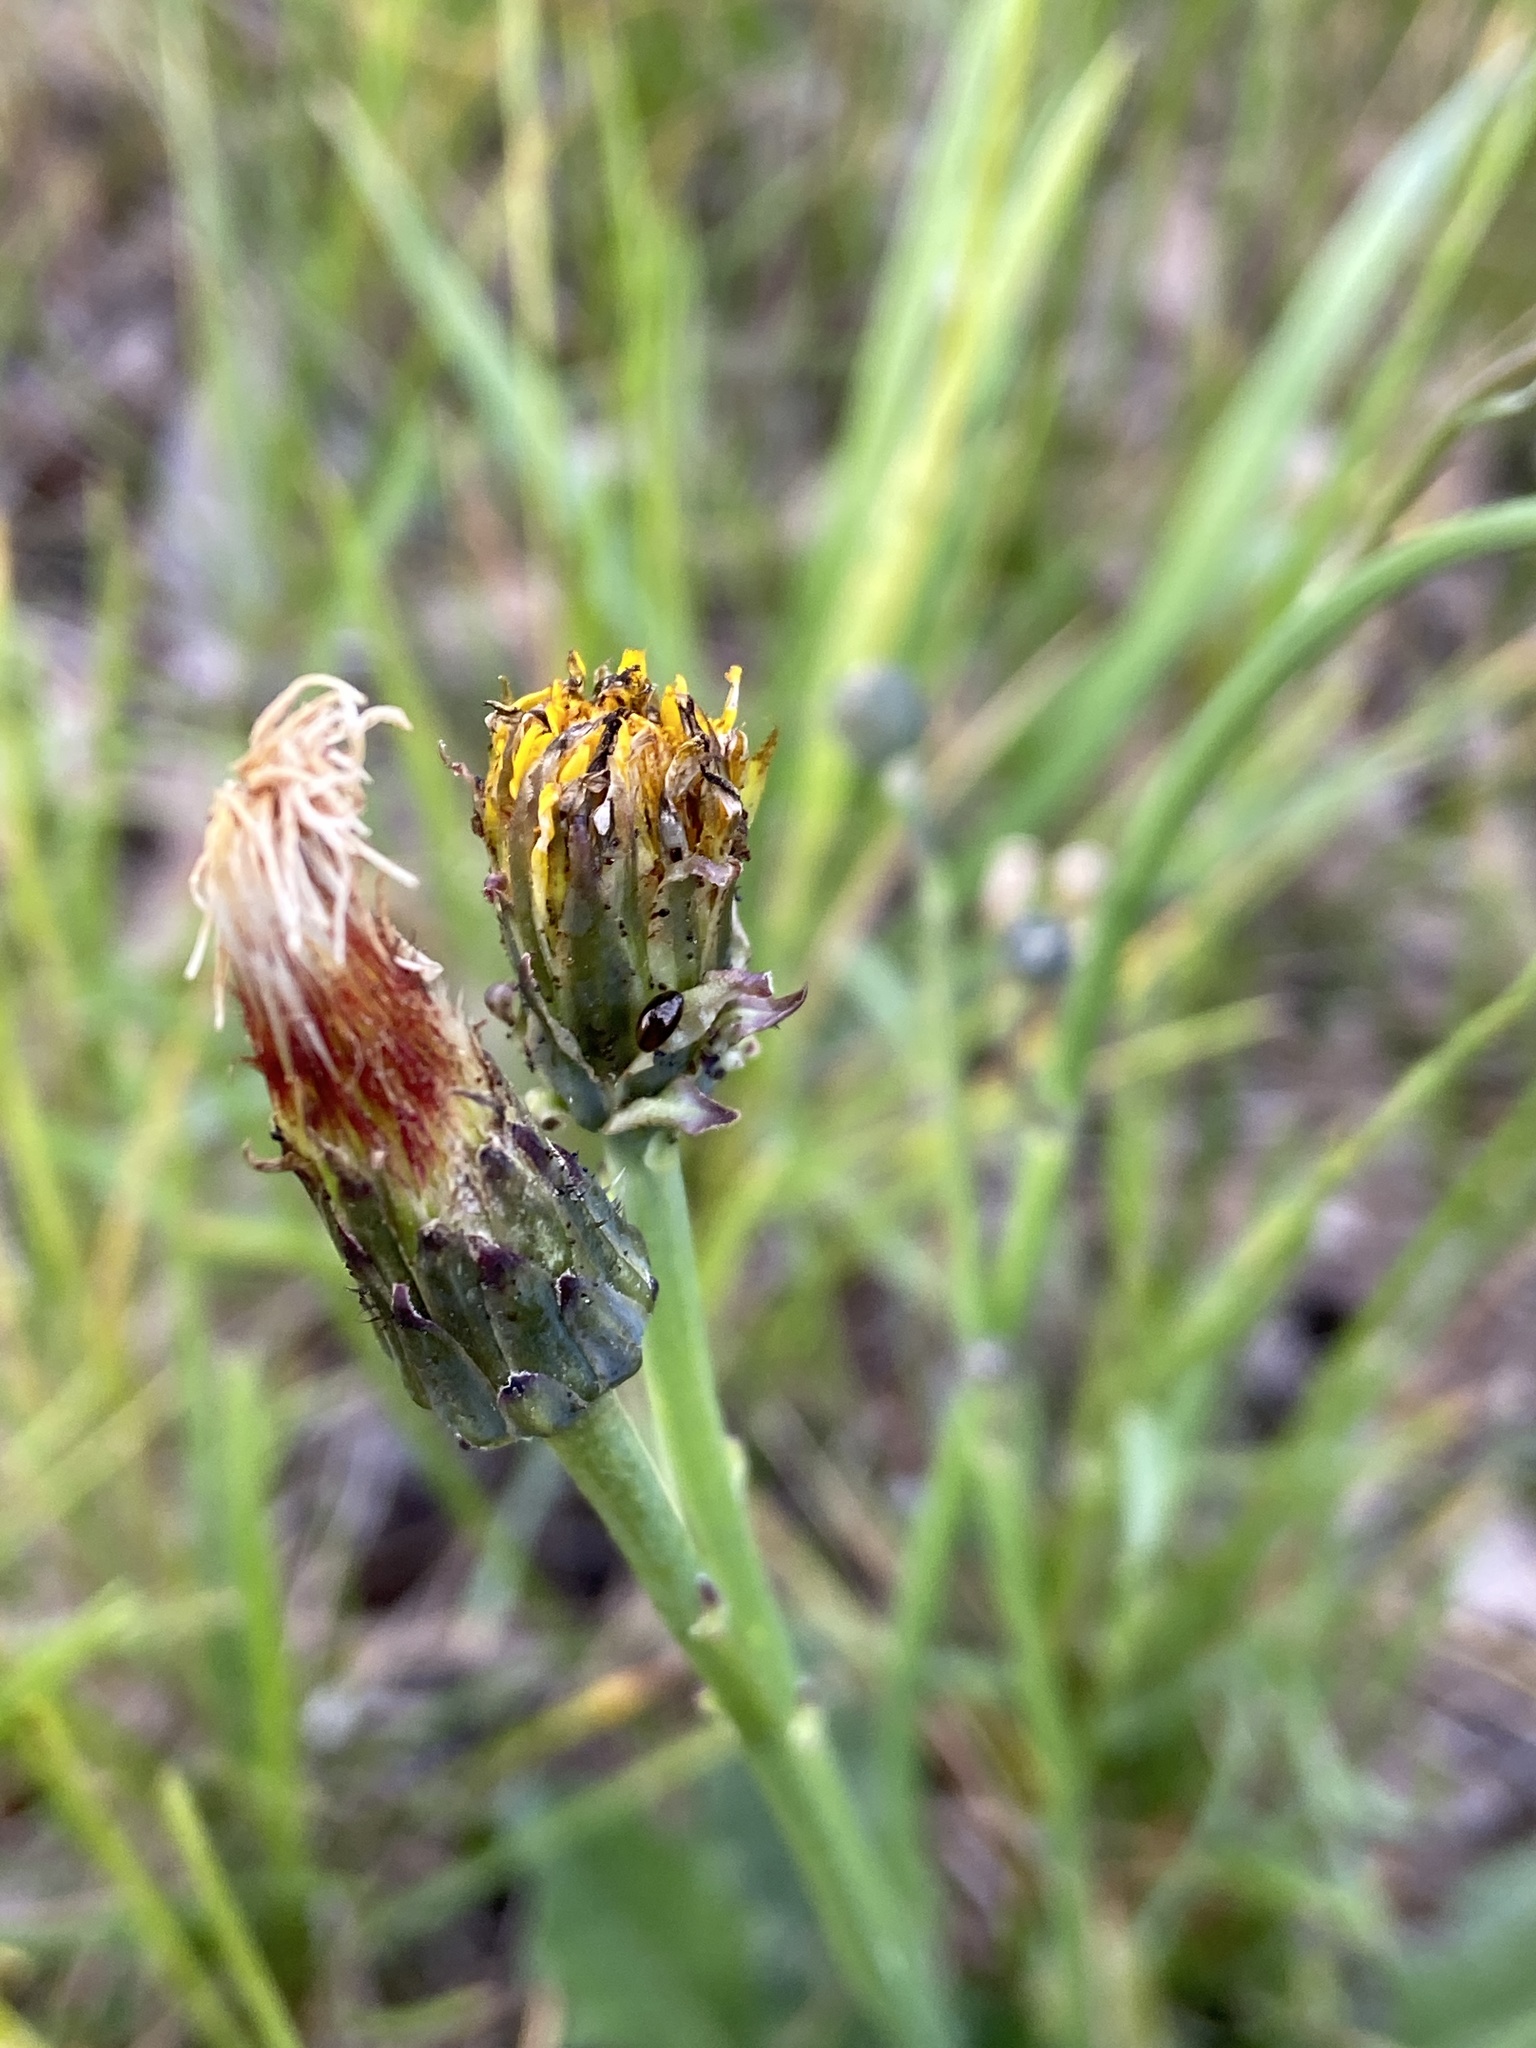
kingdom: Plantae
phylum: Tracheophyta
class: Magnoliopsida
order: Asterales
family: Asteraceae
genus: Hypochaeris
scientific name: Hypochaeris radicata
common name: Flatweed
